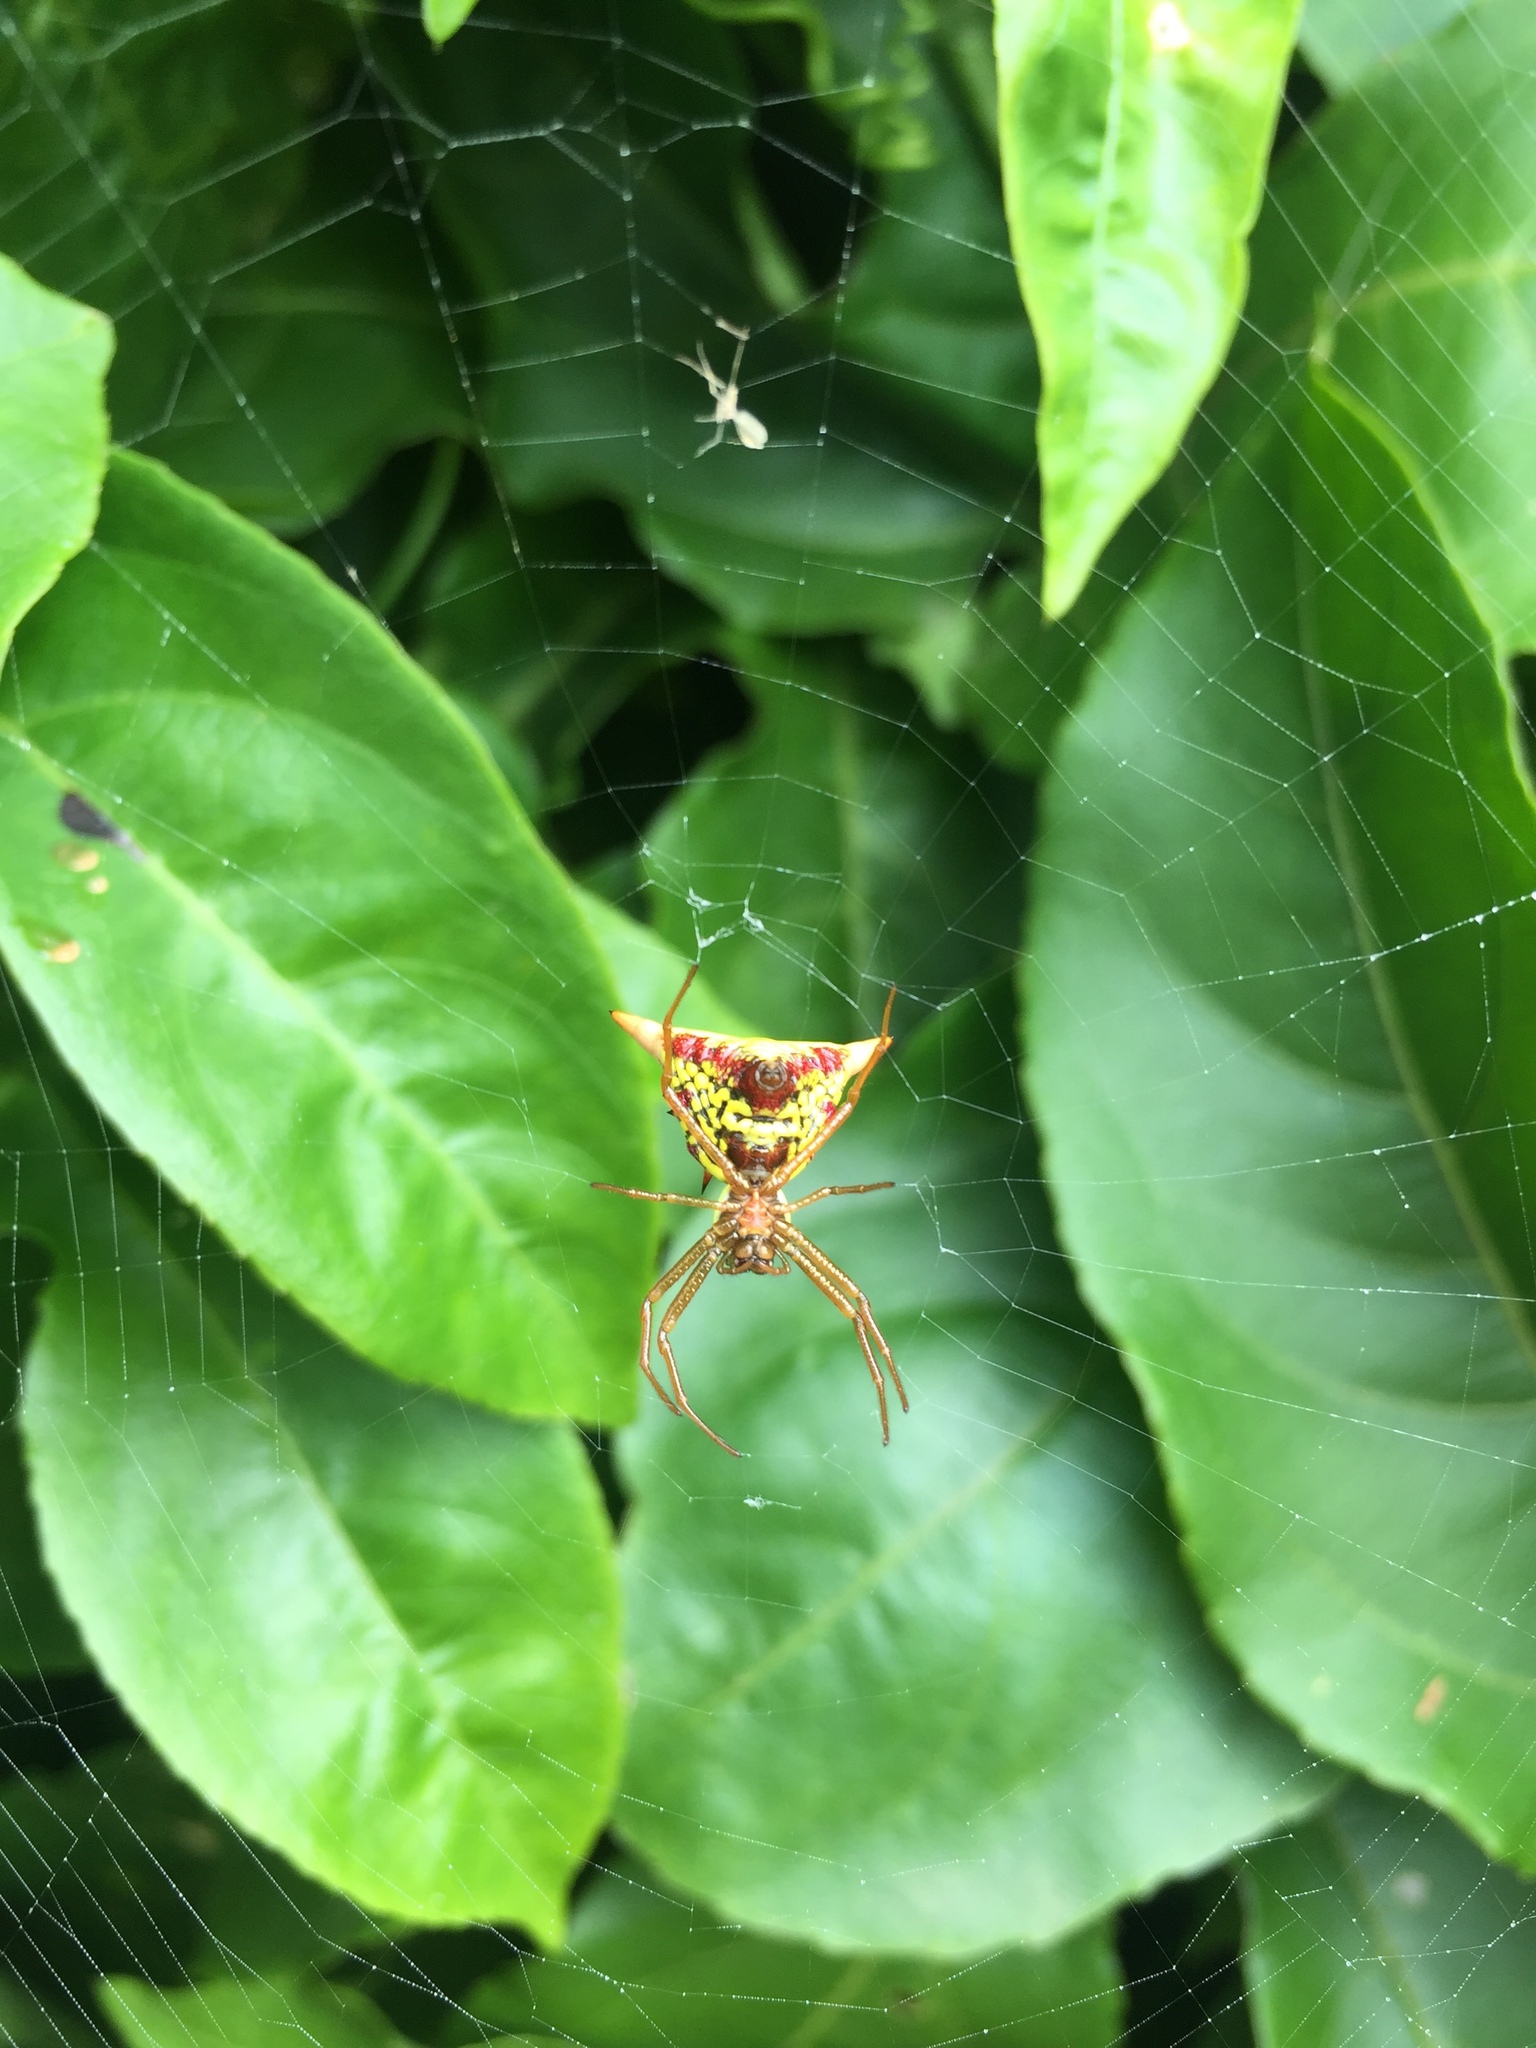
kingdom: Animalia
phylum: Arthropoda
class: Arachnida
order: Araneae
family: Araneidae
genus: Micrathena
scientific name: Micrathena sagittata
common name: Orb weavers
